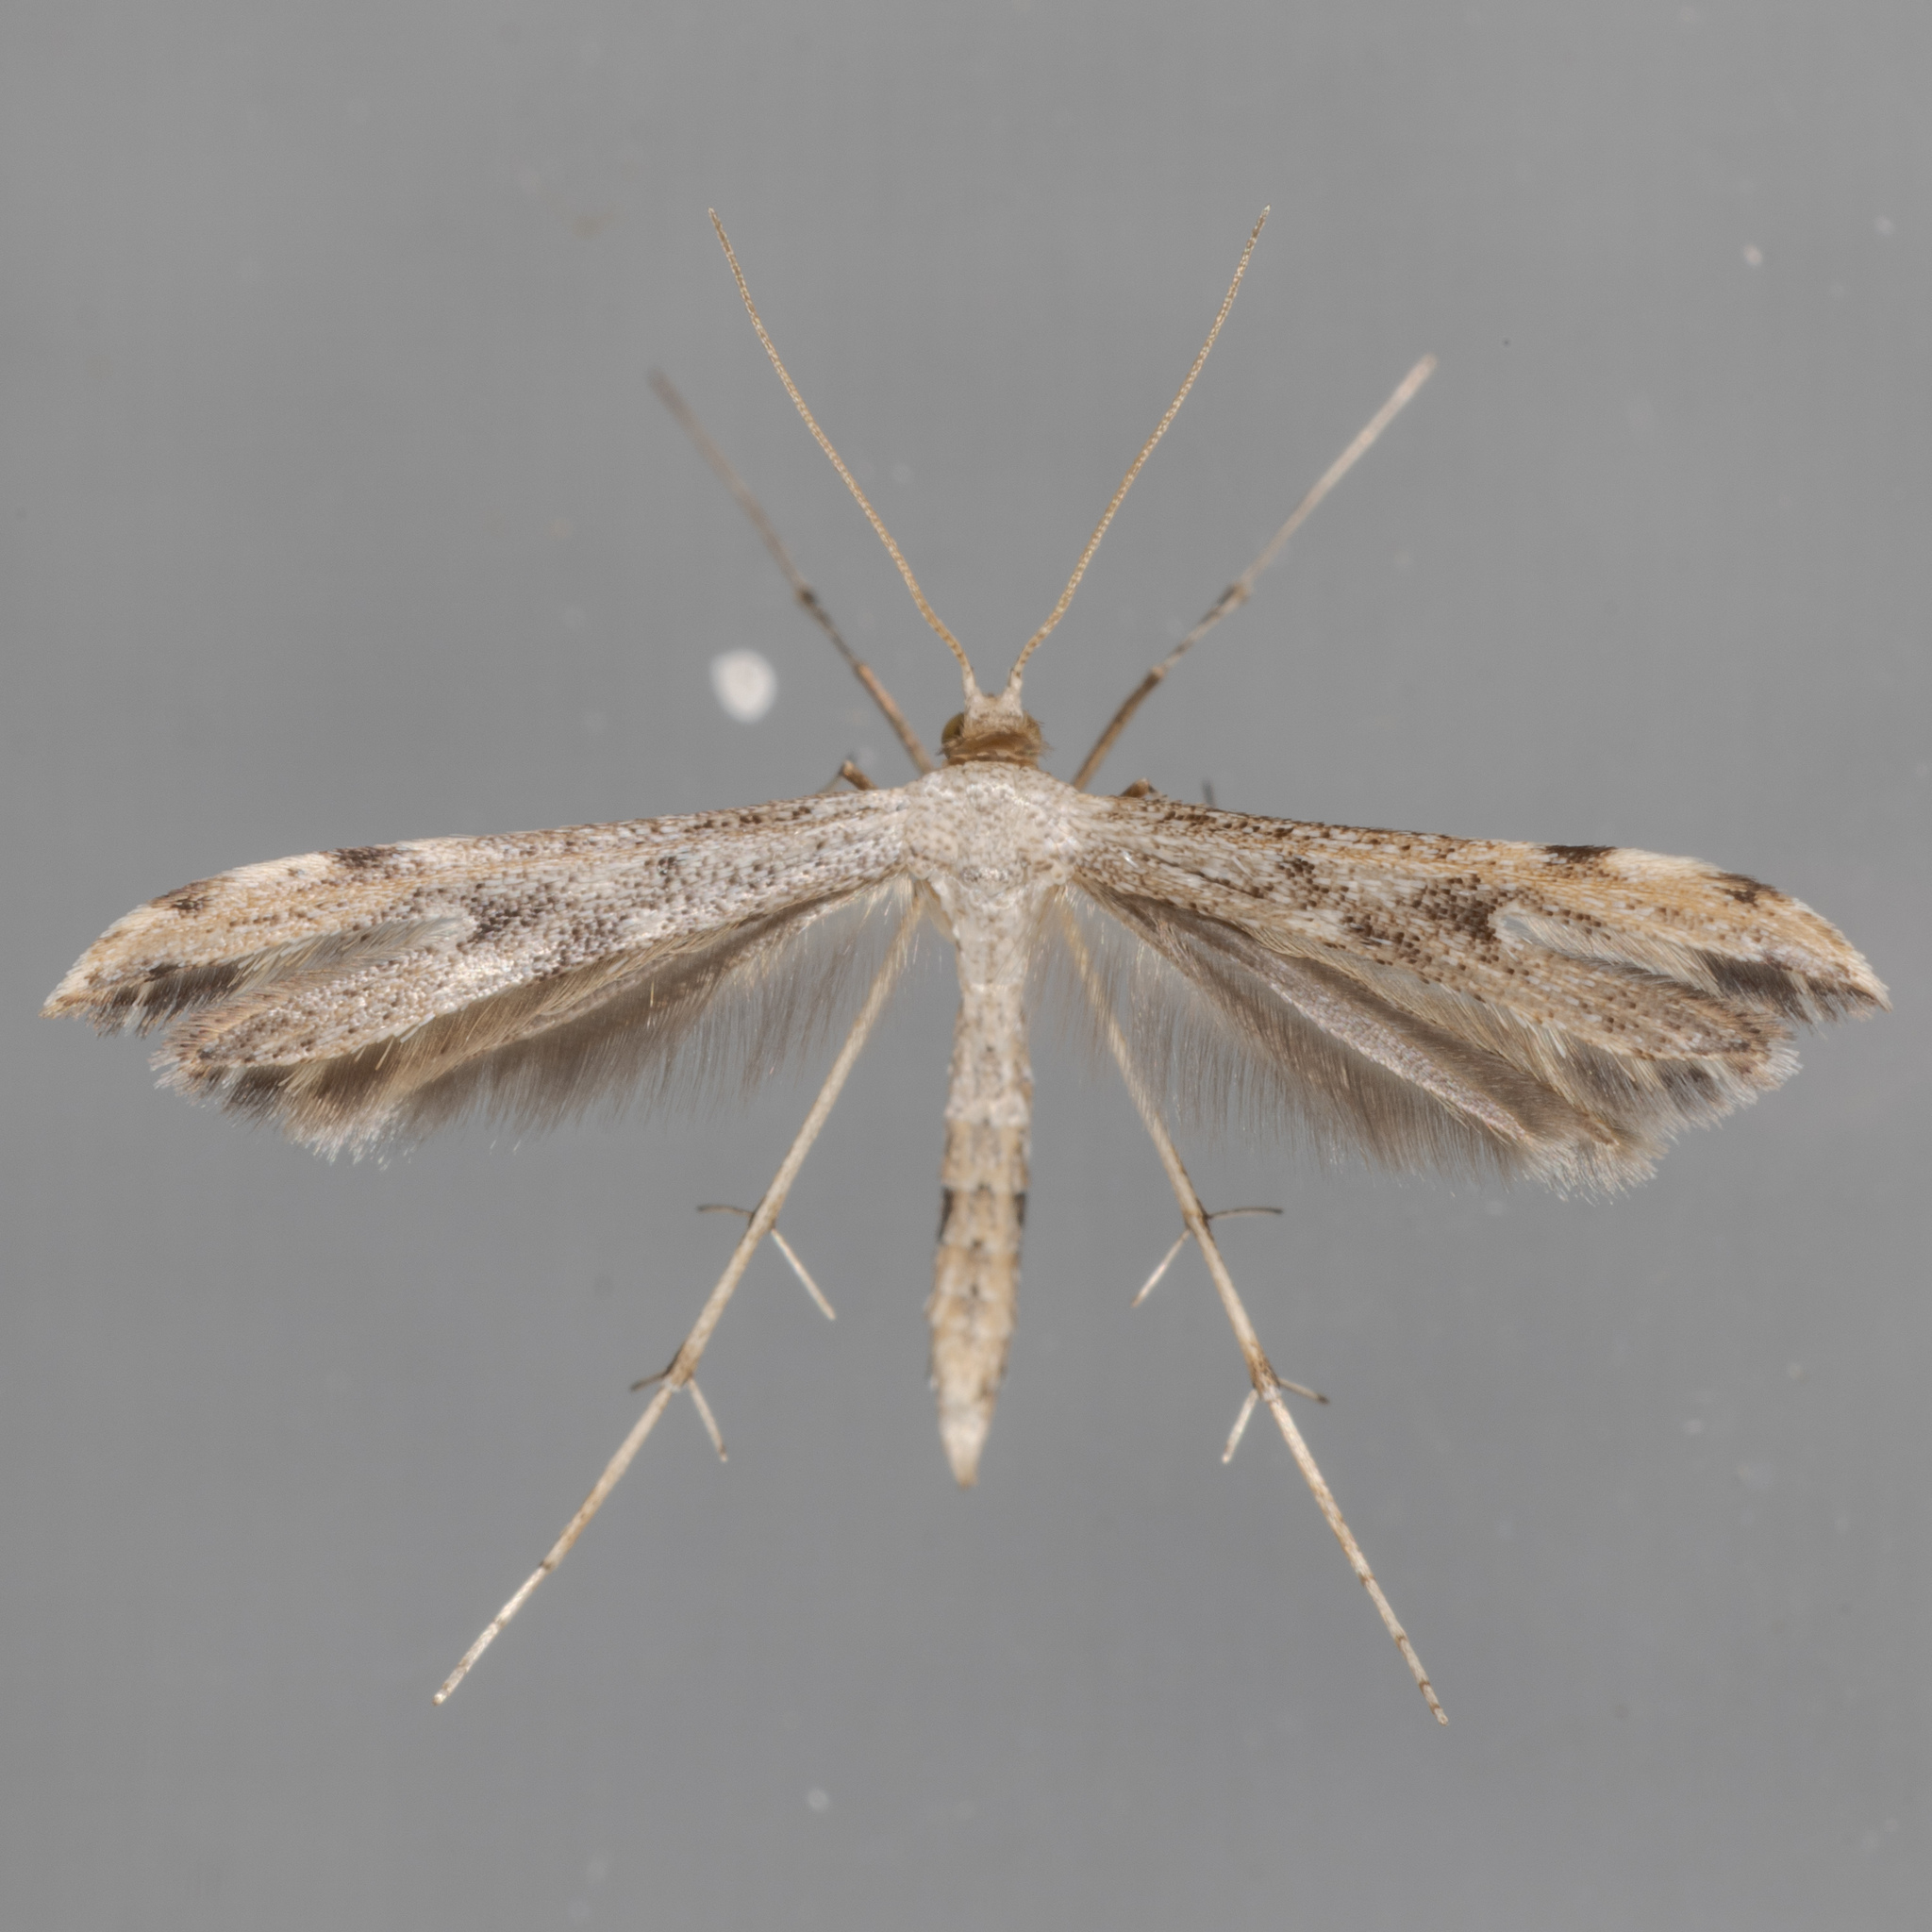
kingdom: Animalia
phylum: Arthropoda
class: Insecta
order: Lepidoptera
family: Pterophoridae
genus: Adaina
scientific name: Adaina ambrosiae
